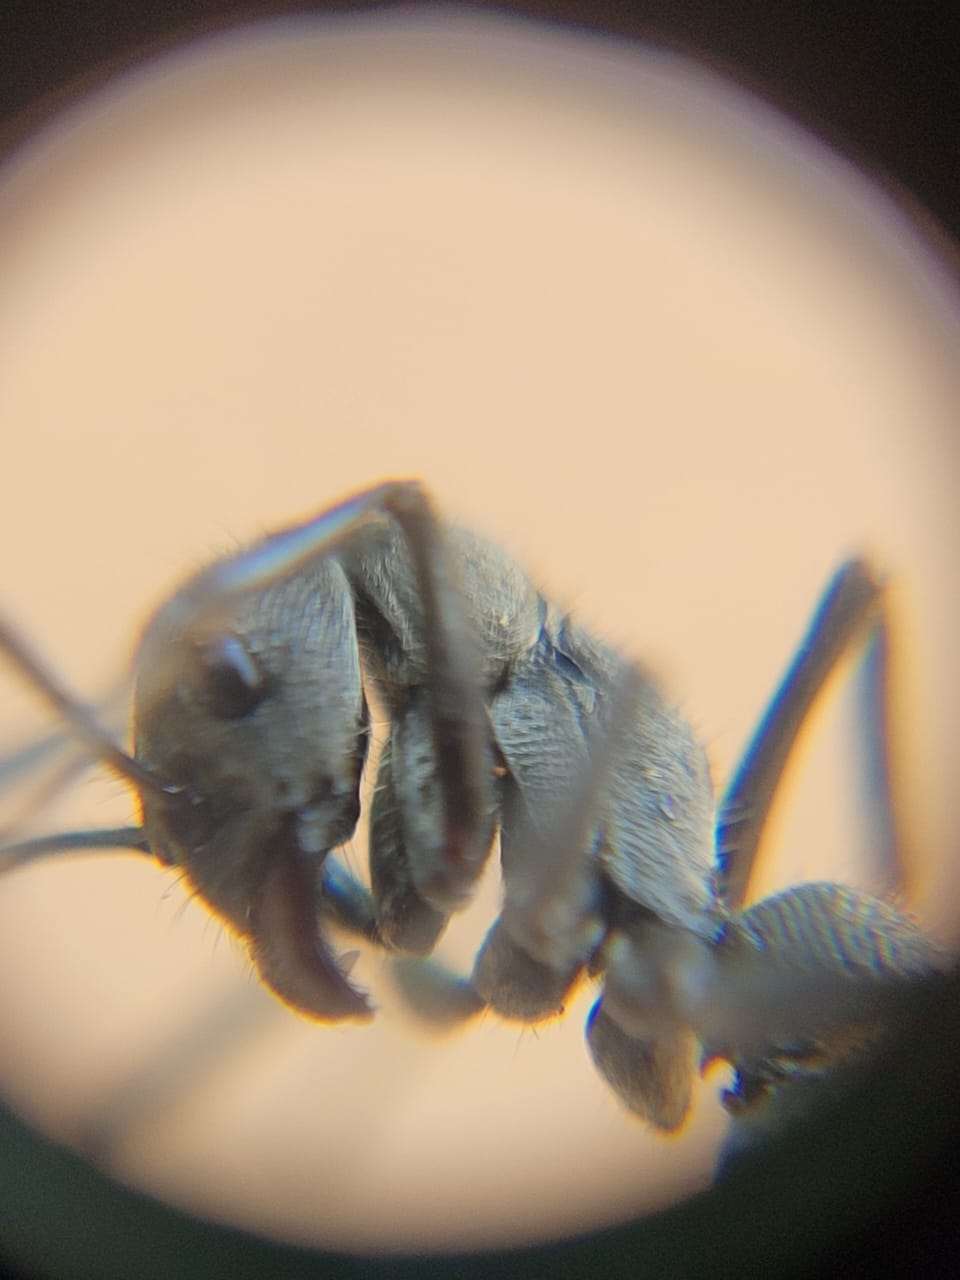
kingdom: Animalia
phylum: Arthropoda
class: Insecta
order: Hymenoptera
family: Formicidae
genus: Diacamma
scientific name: Diacamma rugosum
